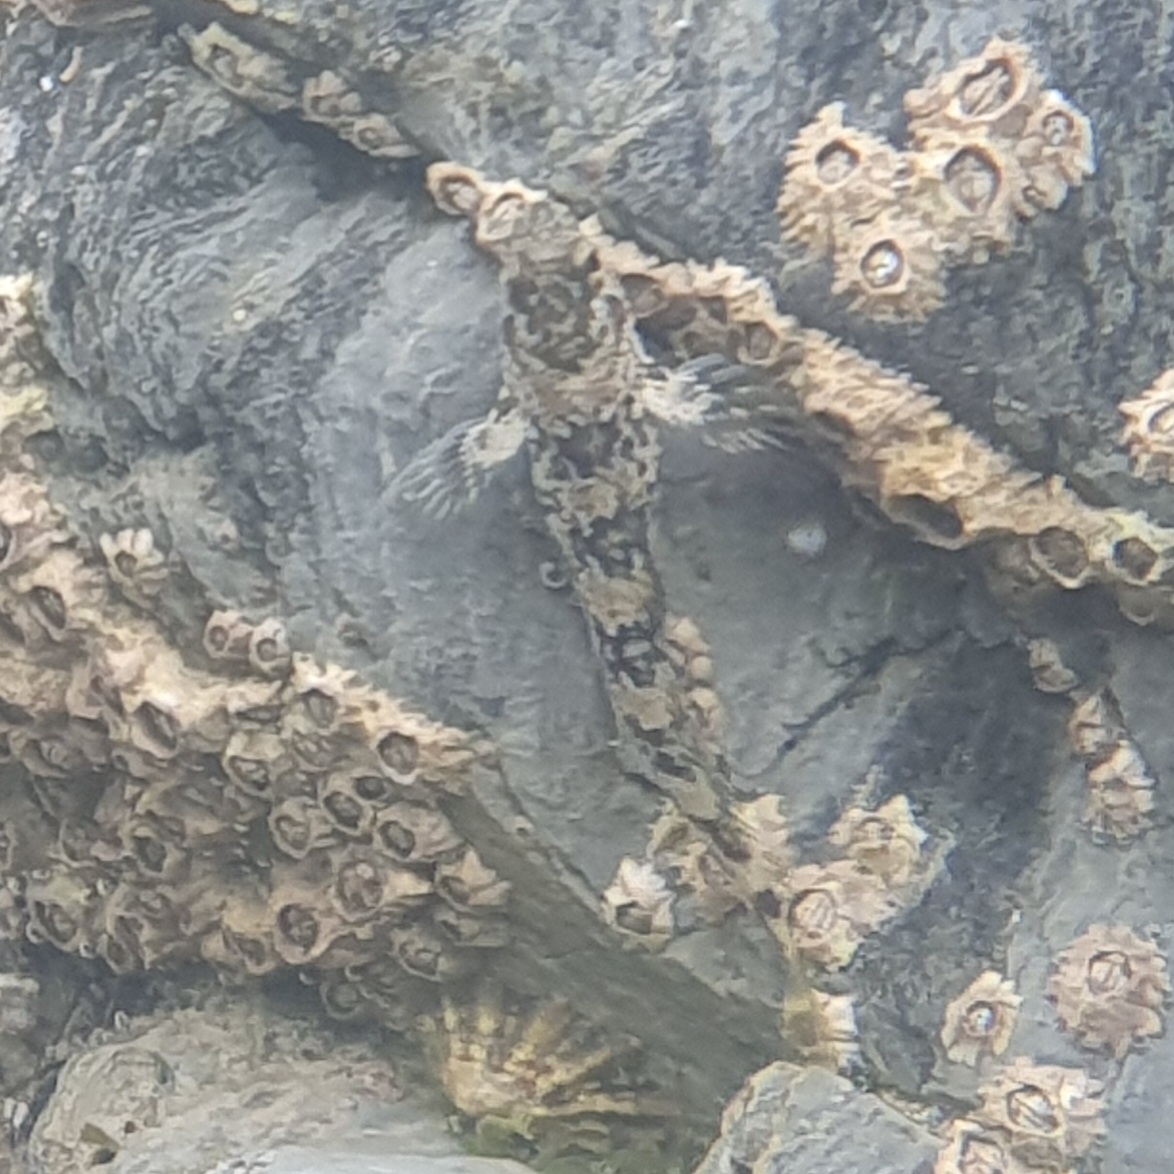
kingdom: Animalia
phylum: Chordata
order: Perciformes
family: Blenniidae
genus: Lipophrys
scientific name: Lipophrys pholis
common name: Shanny
